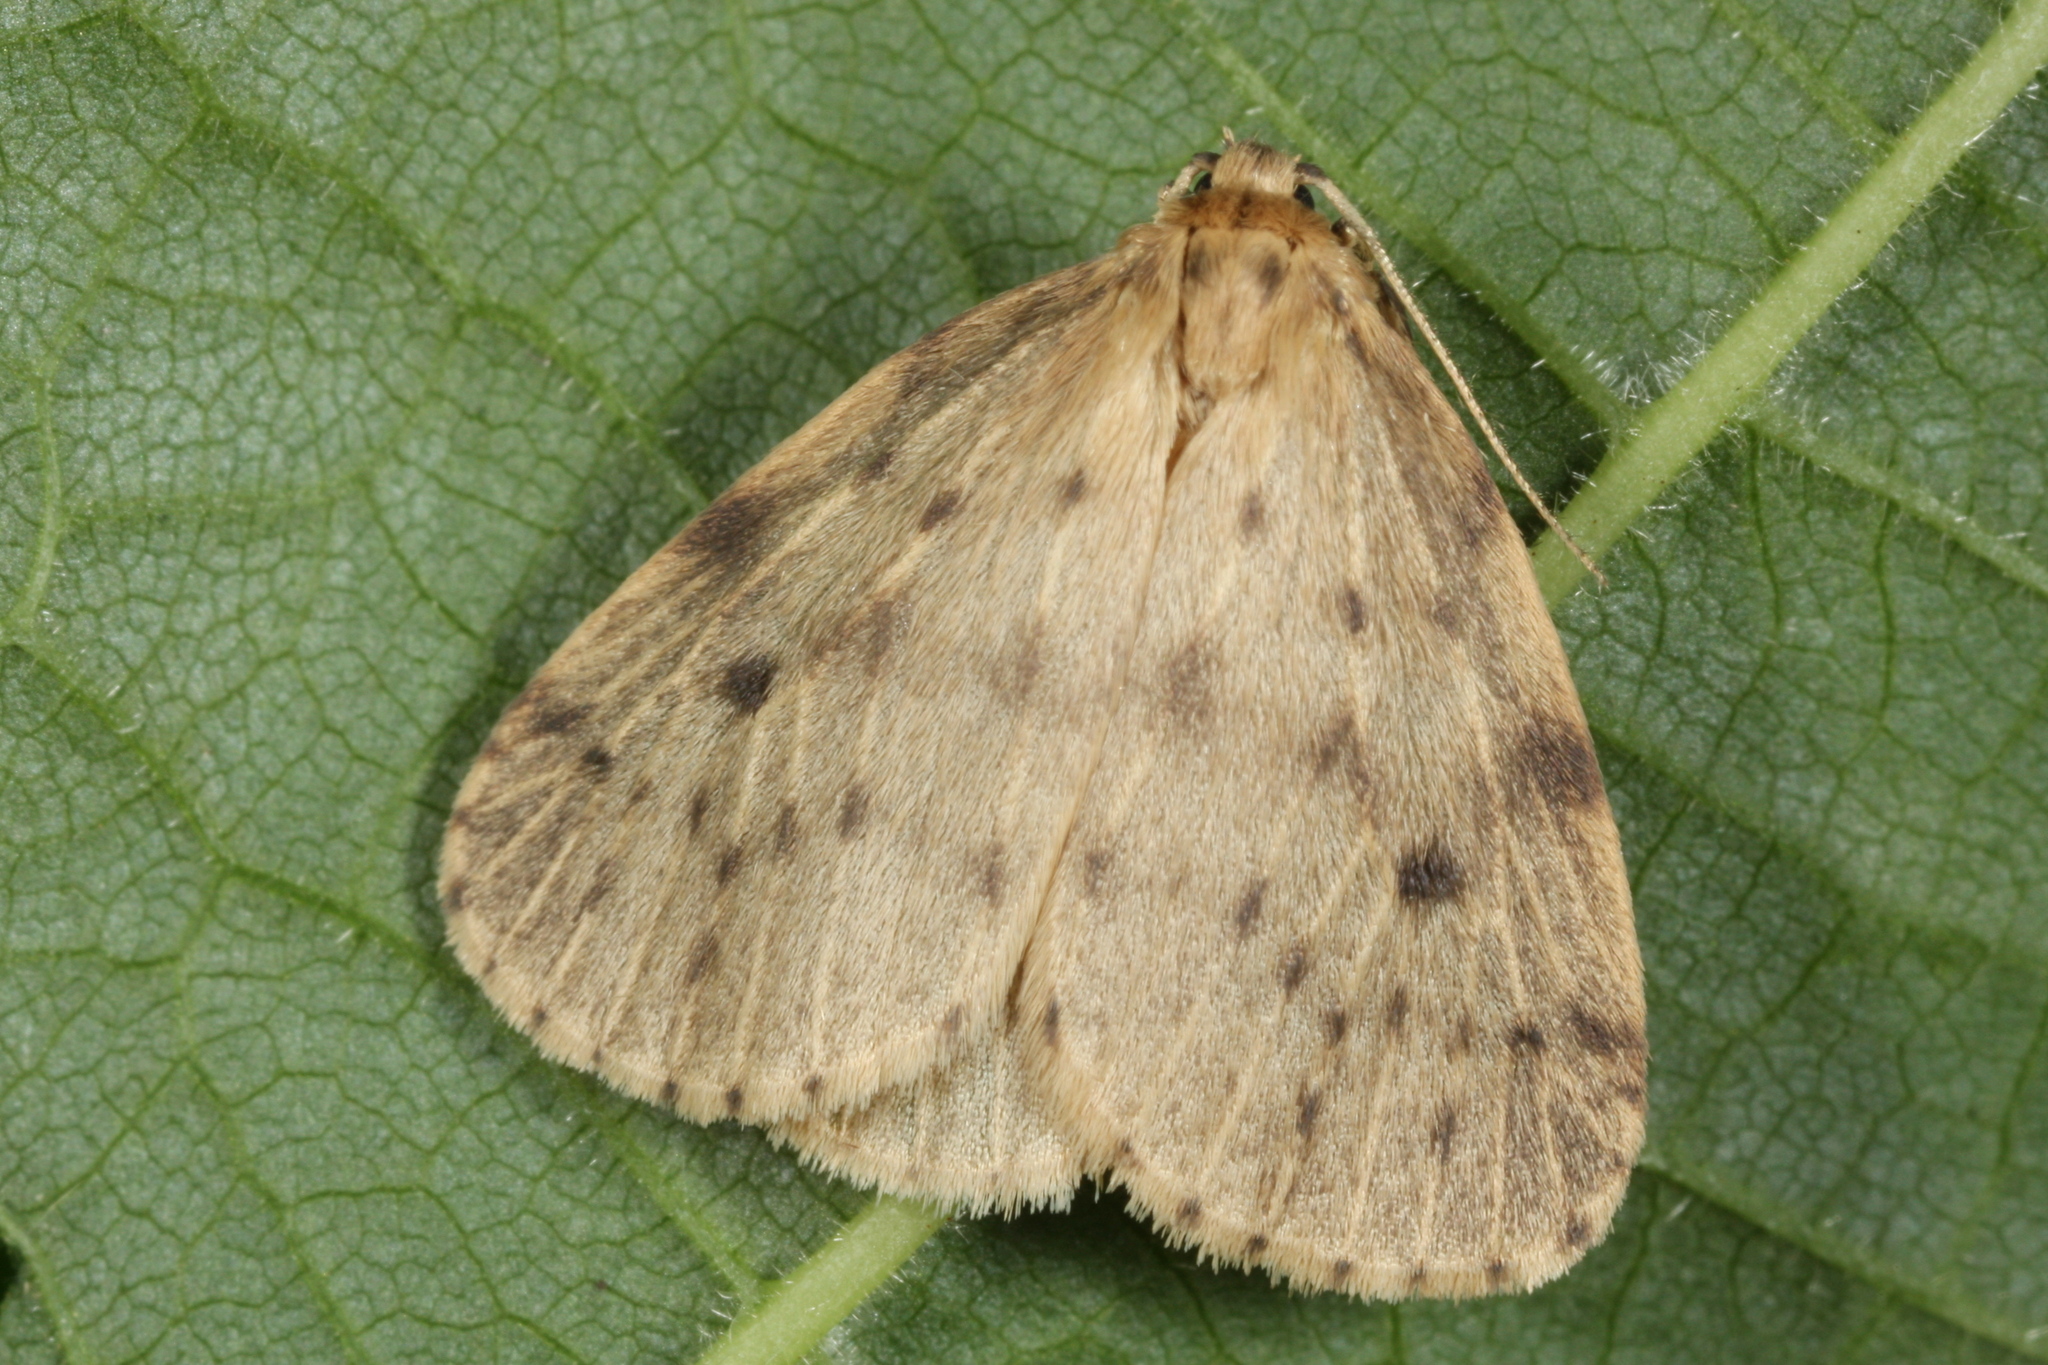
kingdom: Animalia
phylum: Arthropoda
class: Insecta
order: Lepidoptera
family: Erebidae
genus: Thumatha
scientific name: Thumatha senex
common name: Round-winged muslin
